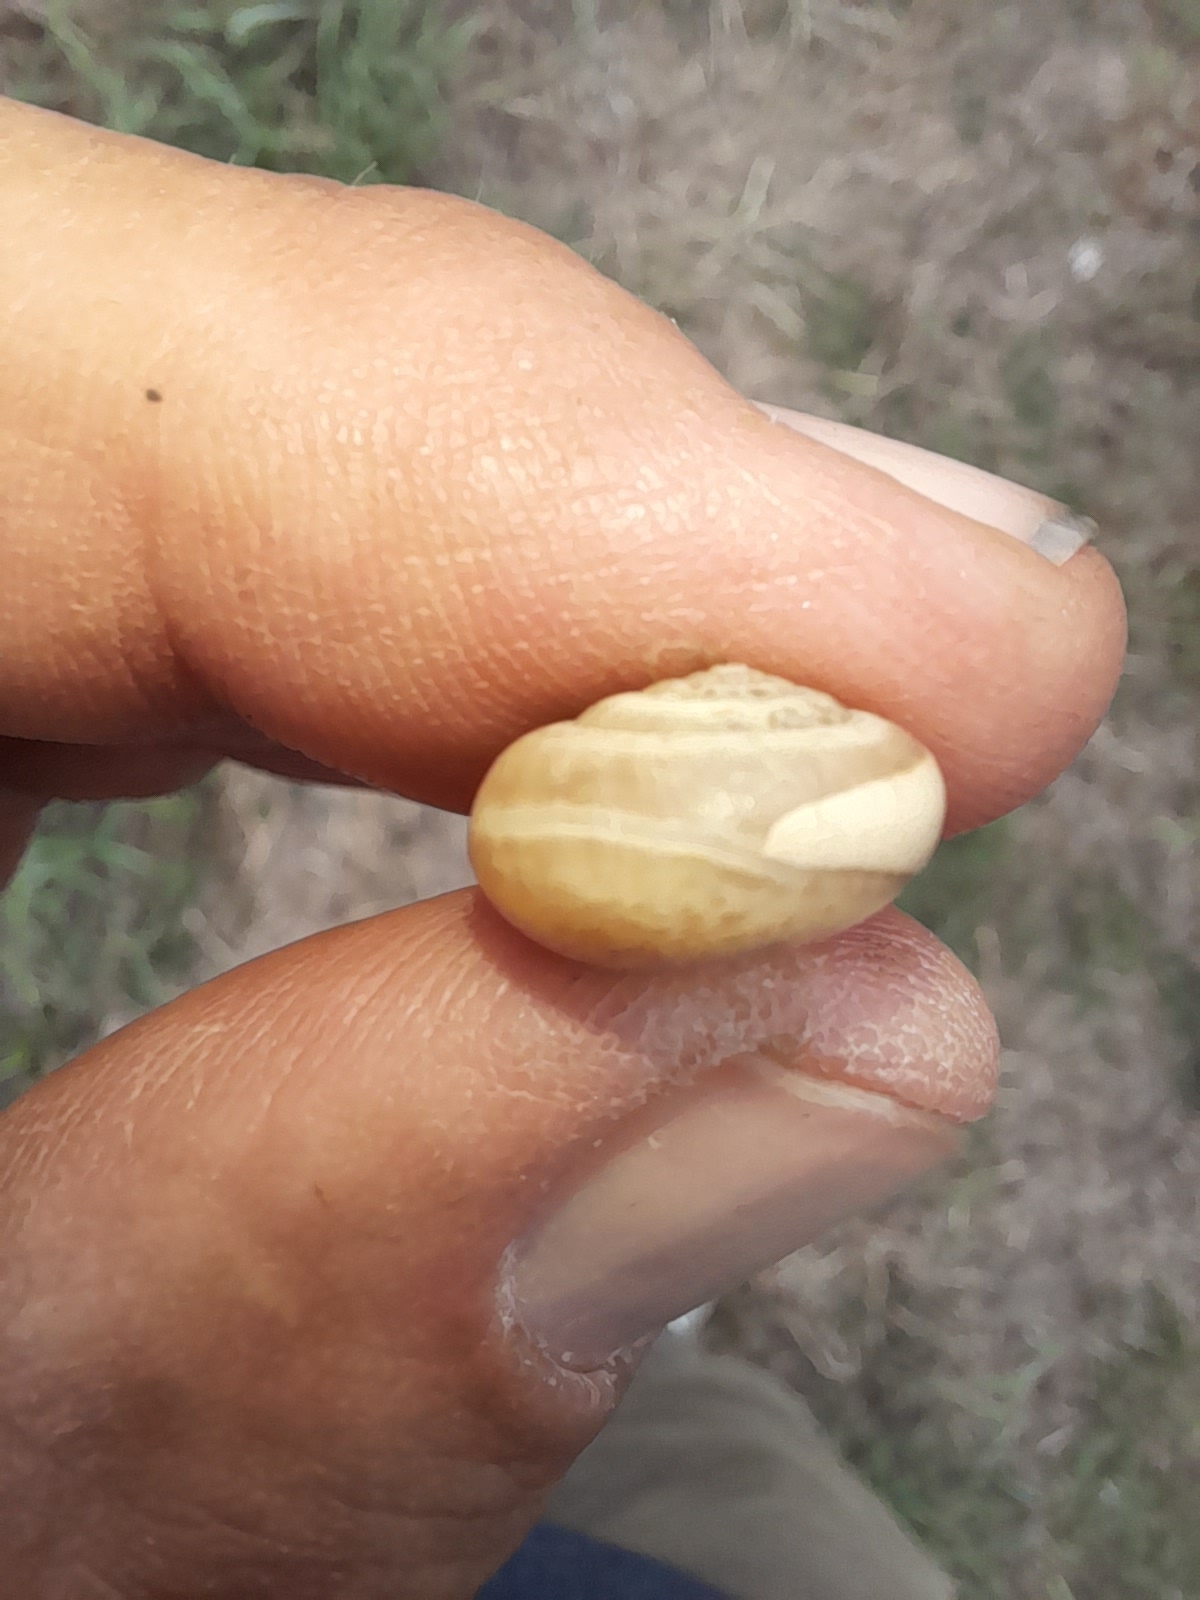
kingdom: Animalia
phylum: Mollusca
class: Gastropoda
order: Stylommatophora
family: Hygromiidae
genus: Monacha
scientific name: Monacha cartusiana
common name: Carthusian snail
